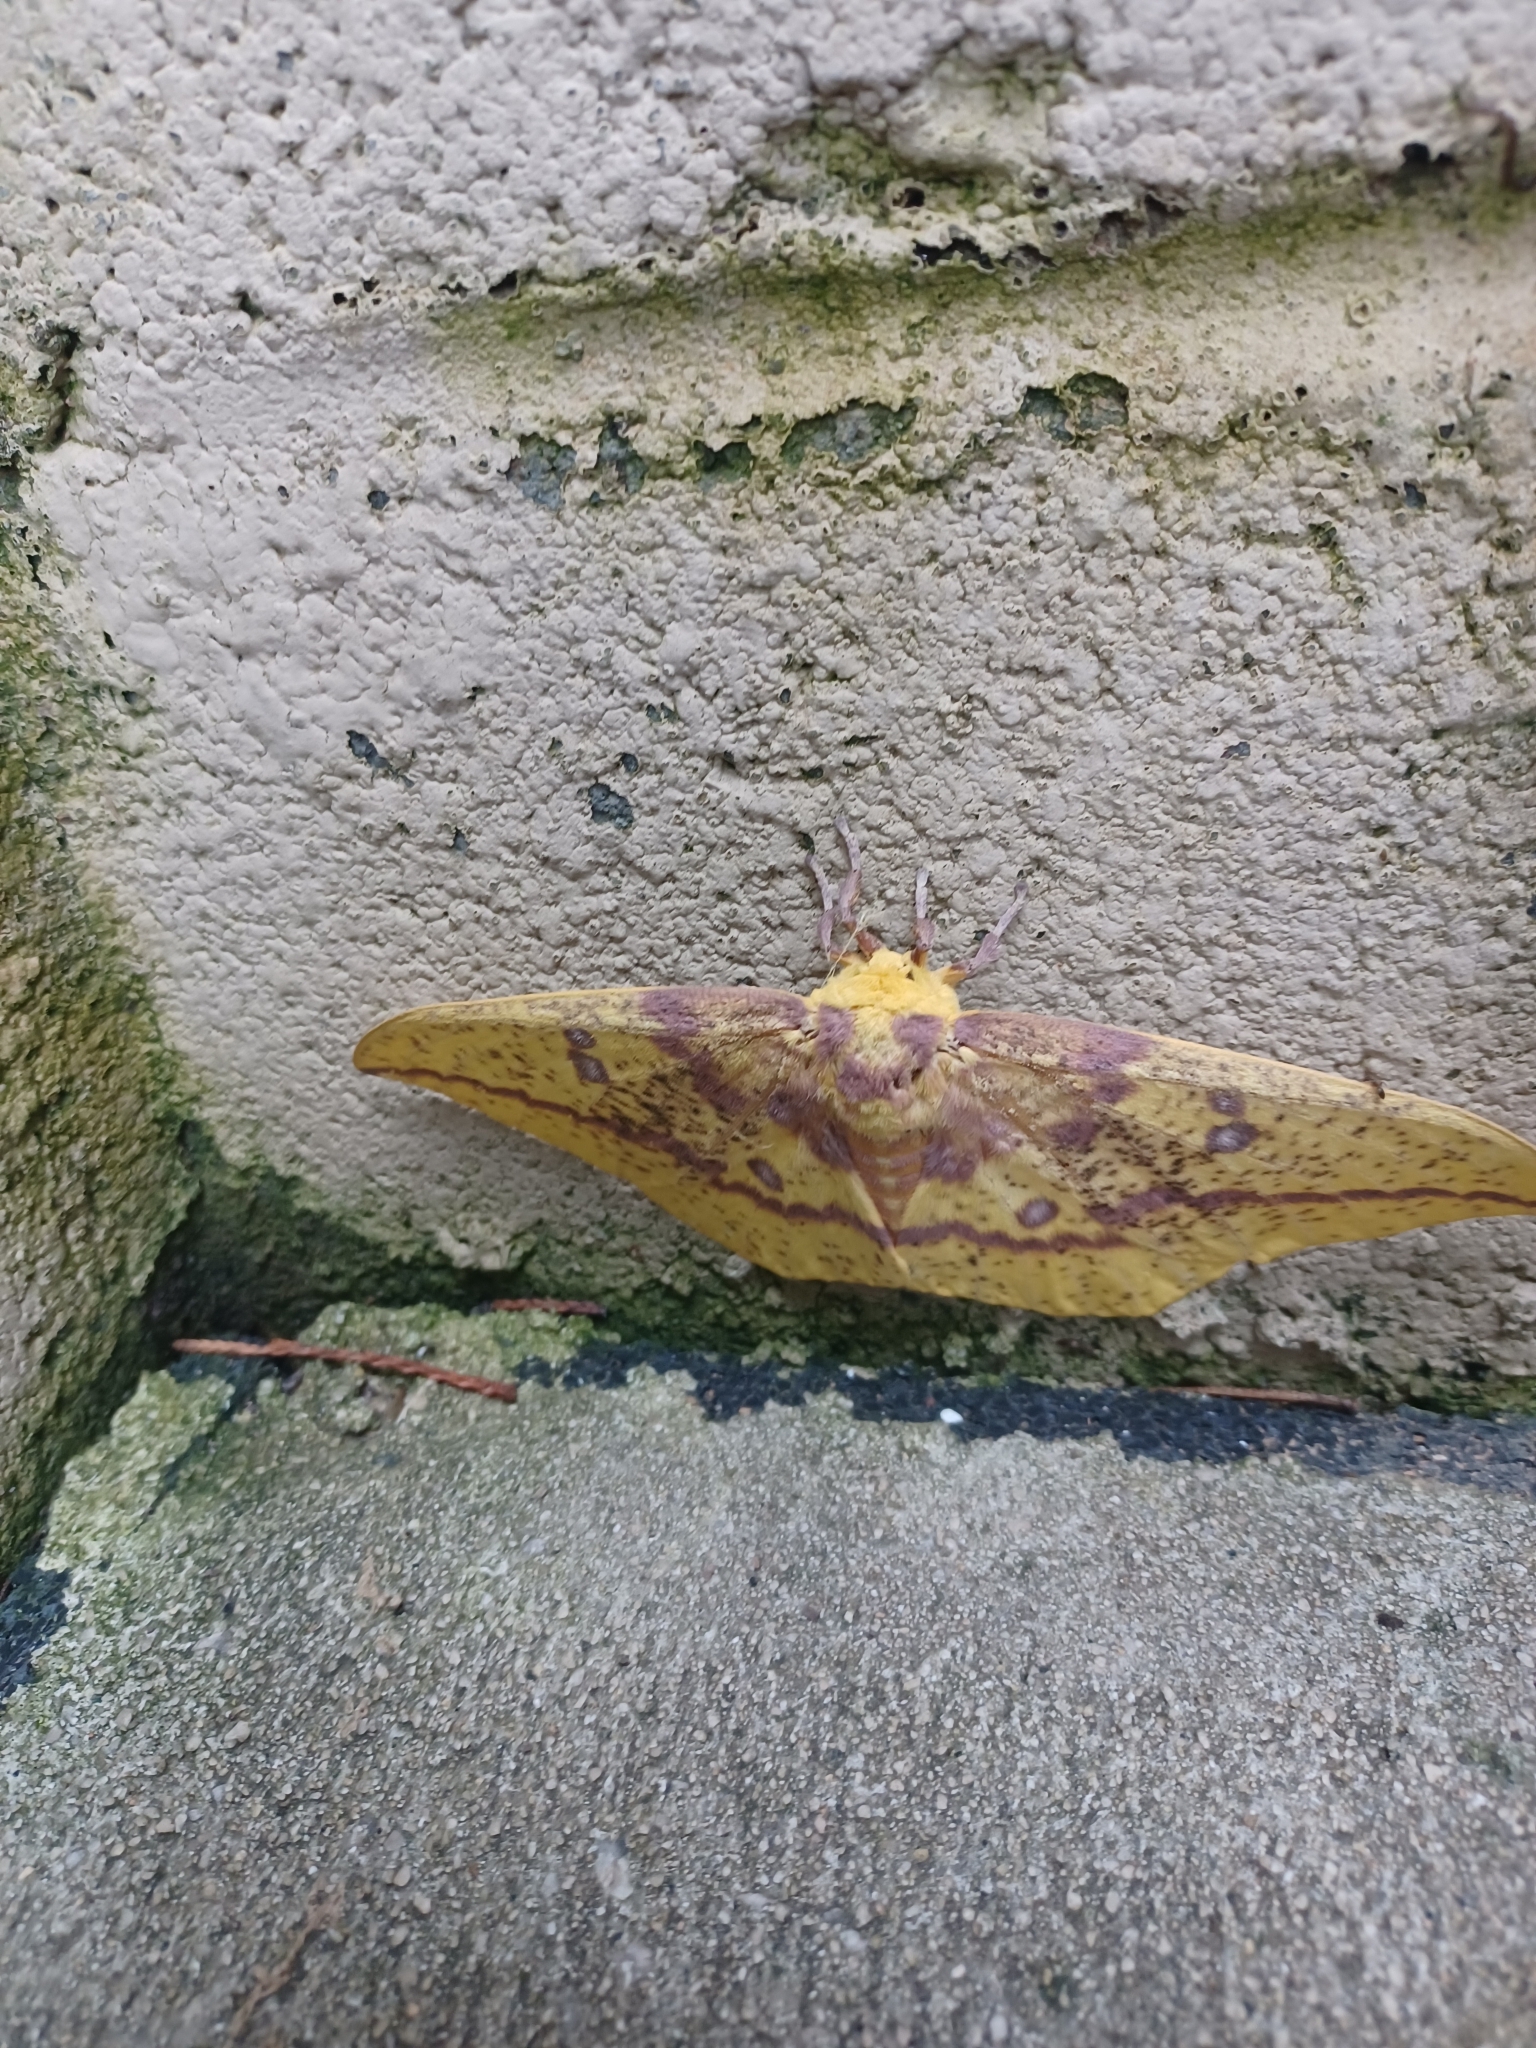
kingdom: Animalia
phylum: Arthropoda
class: Insecta
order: Lepidoptera
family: Saturniidae
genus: Eacles
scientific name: Eacles imperialis
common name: Imperial moth
